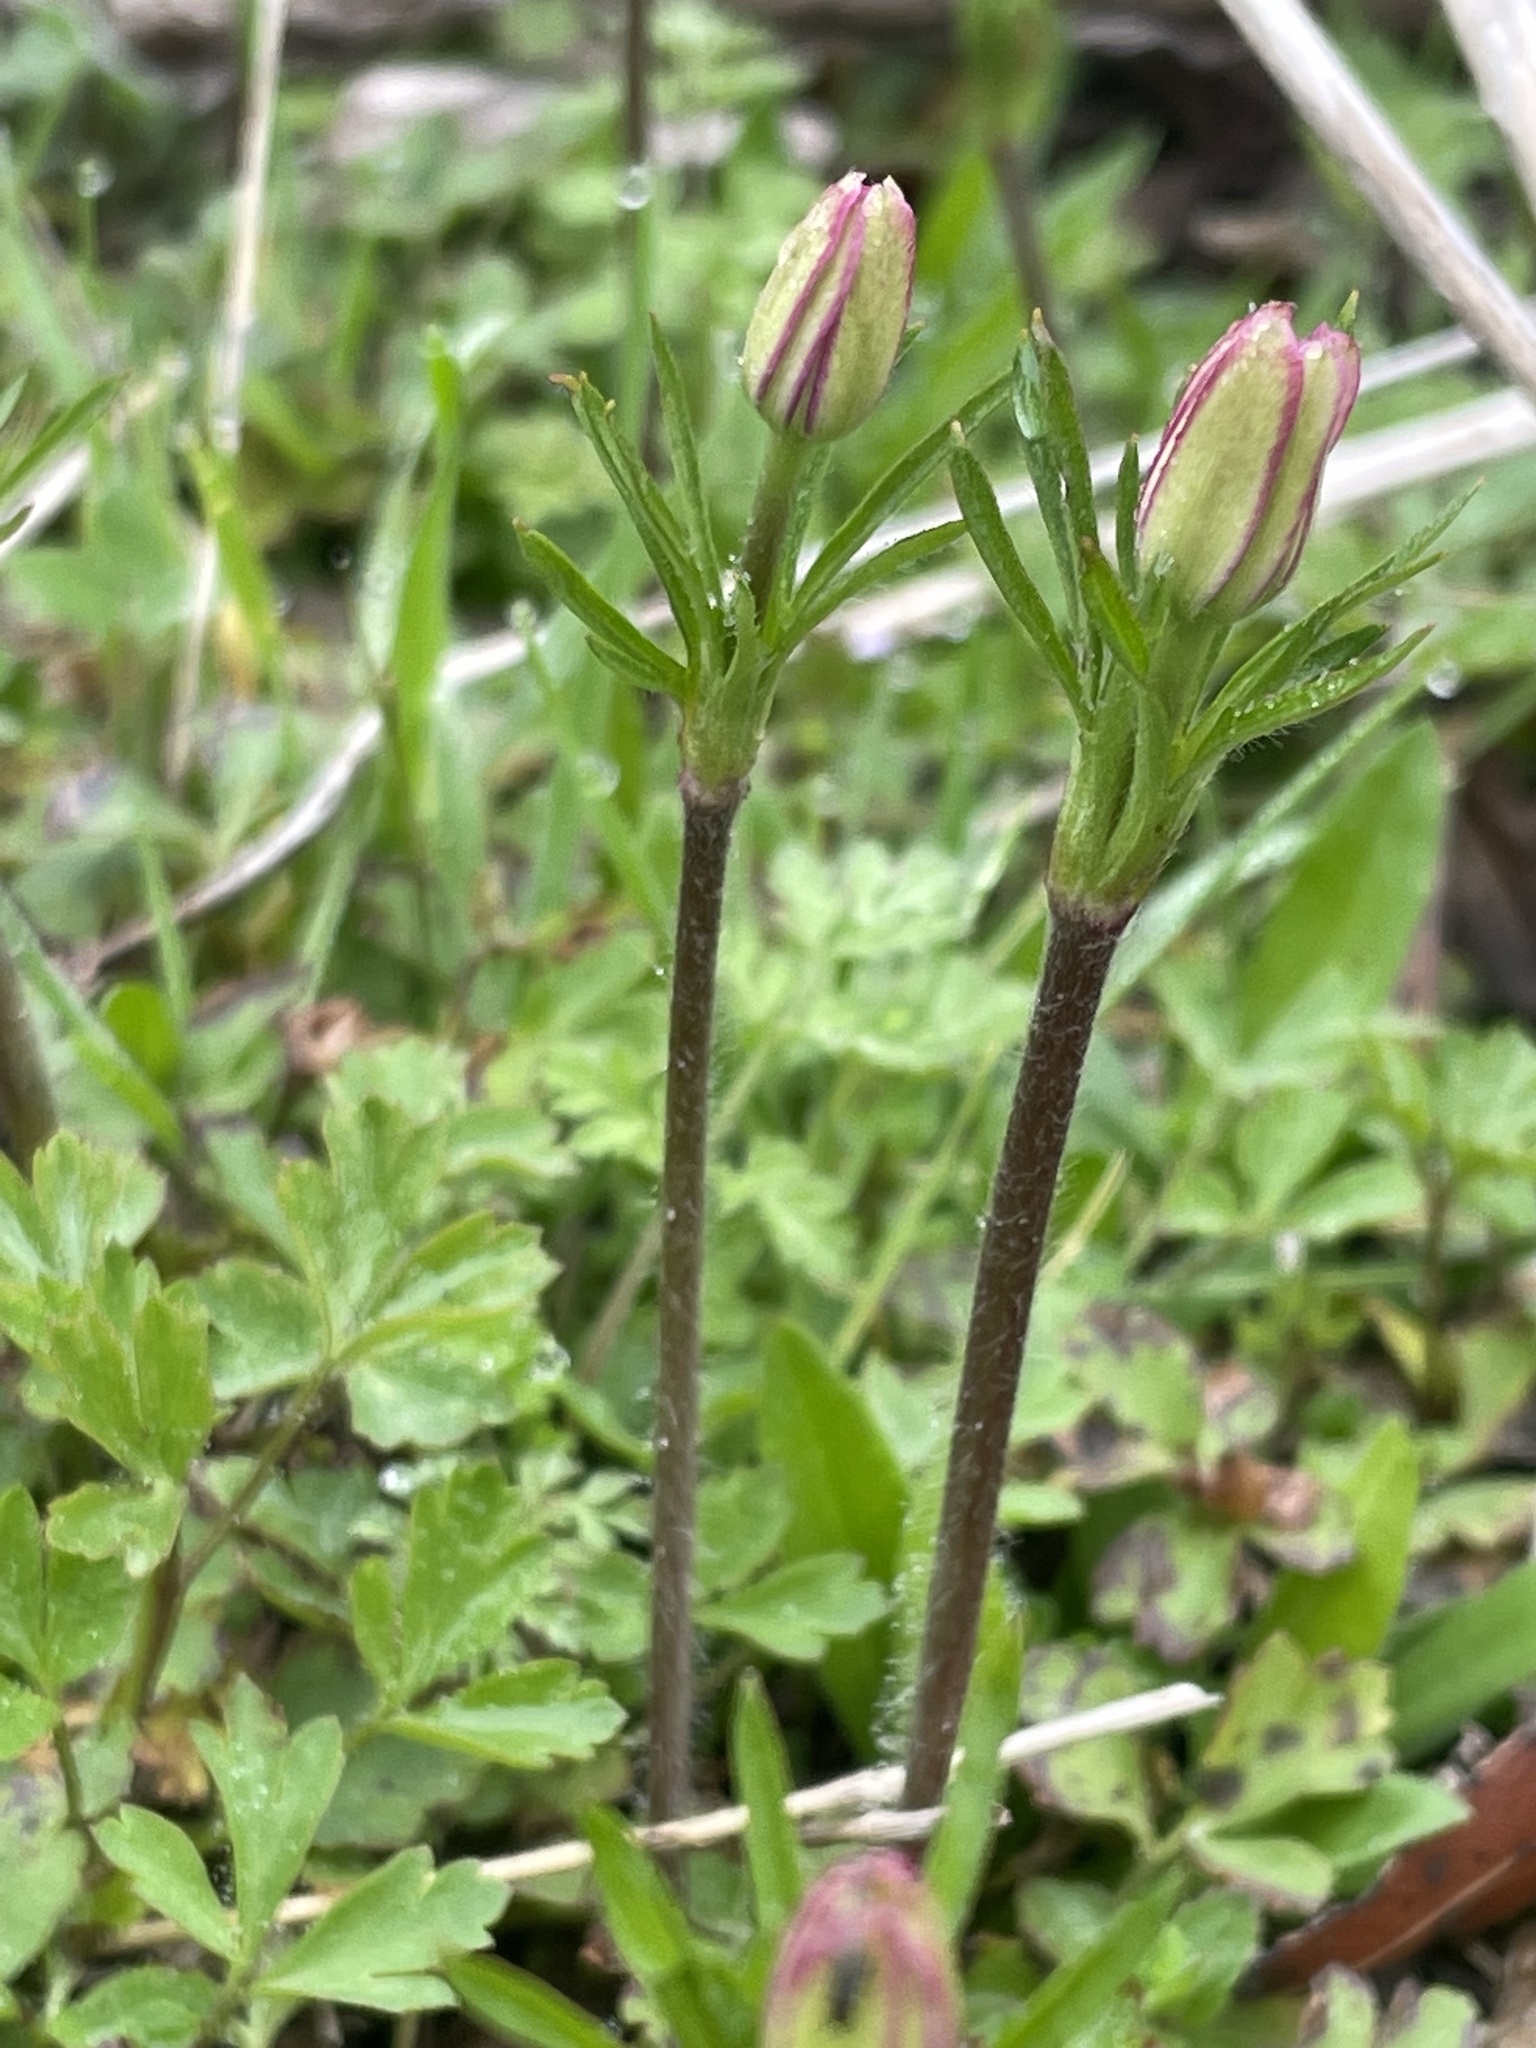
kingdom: Plantae
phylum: Tracheophyta
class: Magnoliopsida
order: Ranunculales
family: Ranunculaceae
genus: Anemone
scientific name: Anemone berlandieri
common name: Ten-petal anemone
